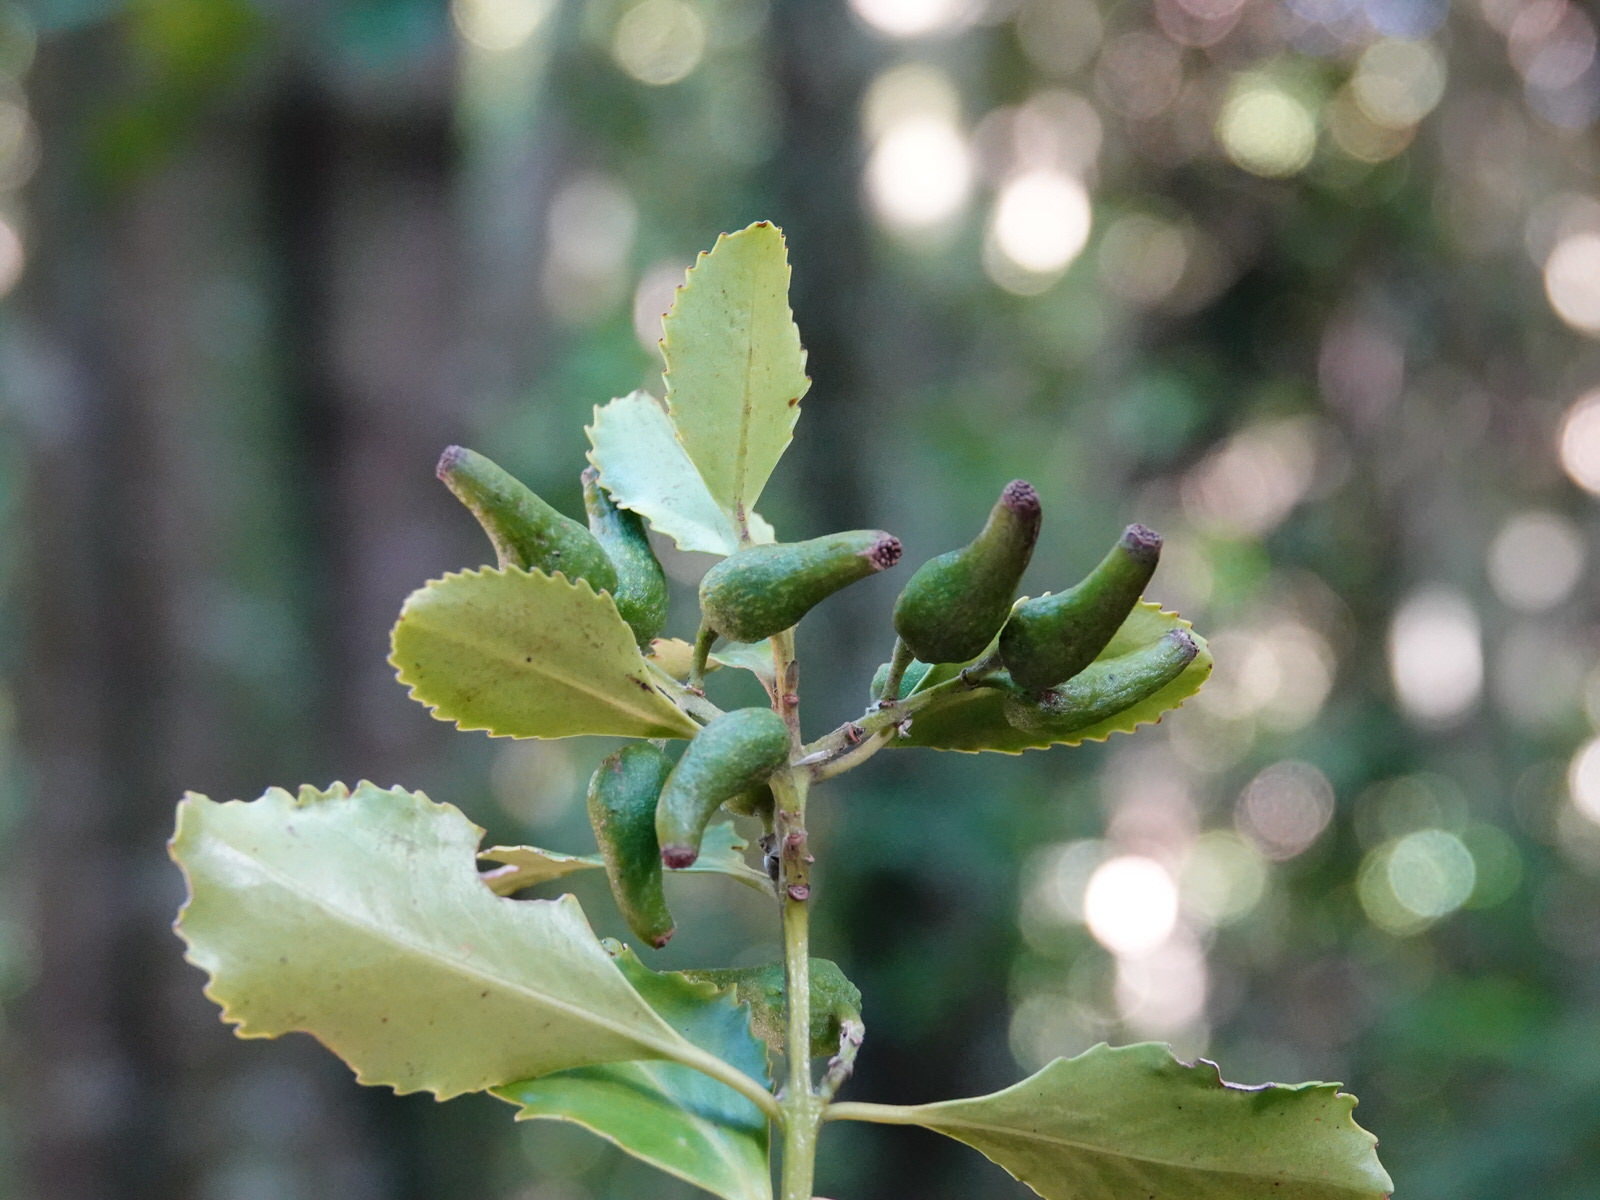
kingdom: Plantae
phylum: Tracheophyta
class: Magnoliopsida
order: Laurales
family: Atherospermataceae
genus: Laurelia
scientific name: Laurelia novae-zelandiae
